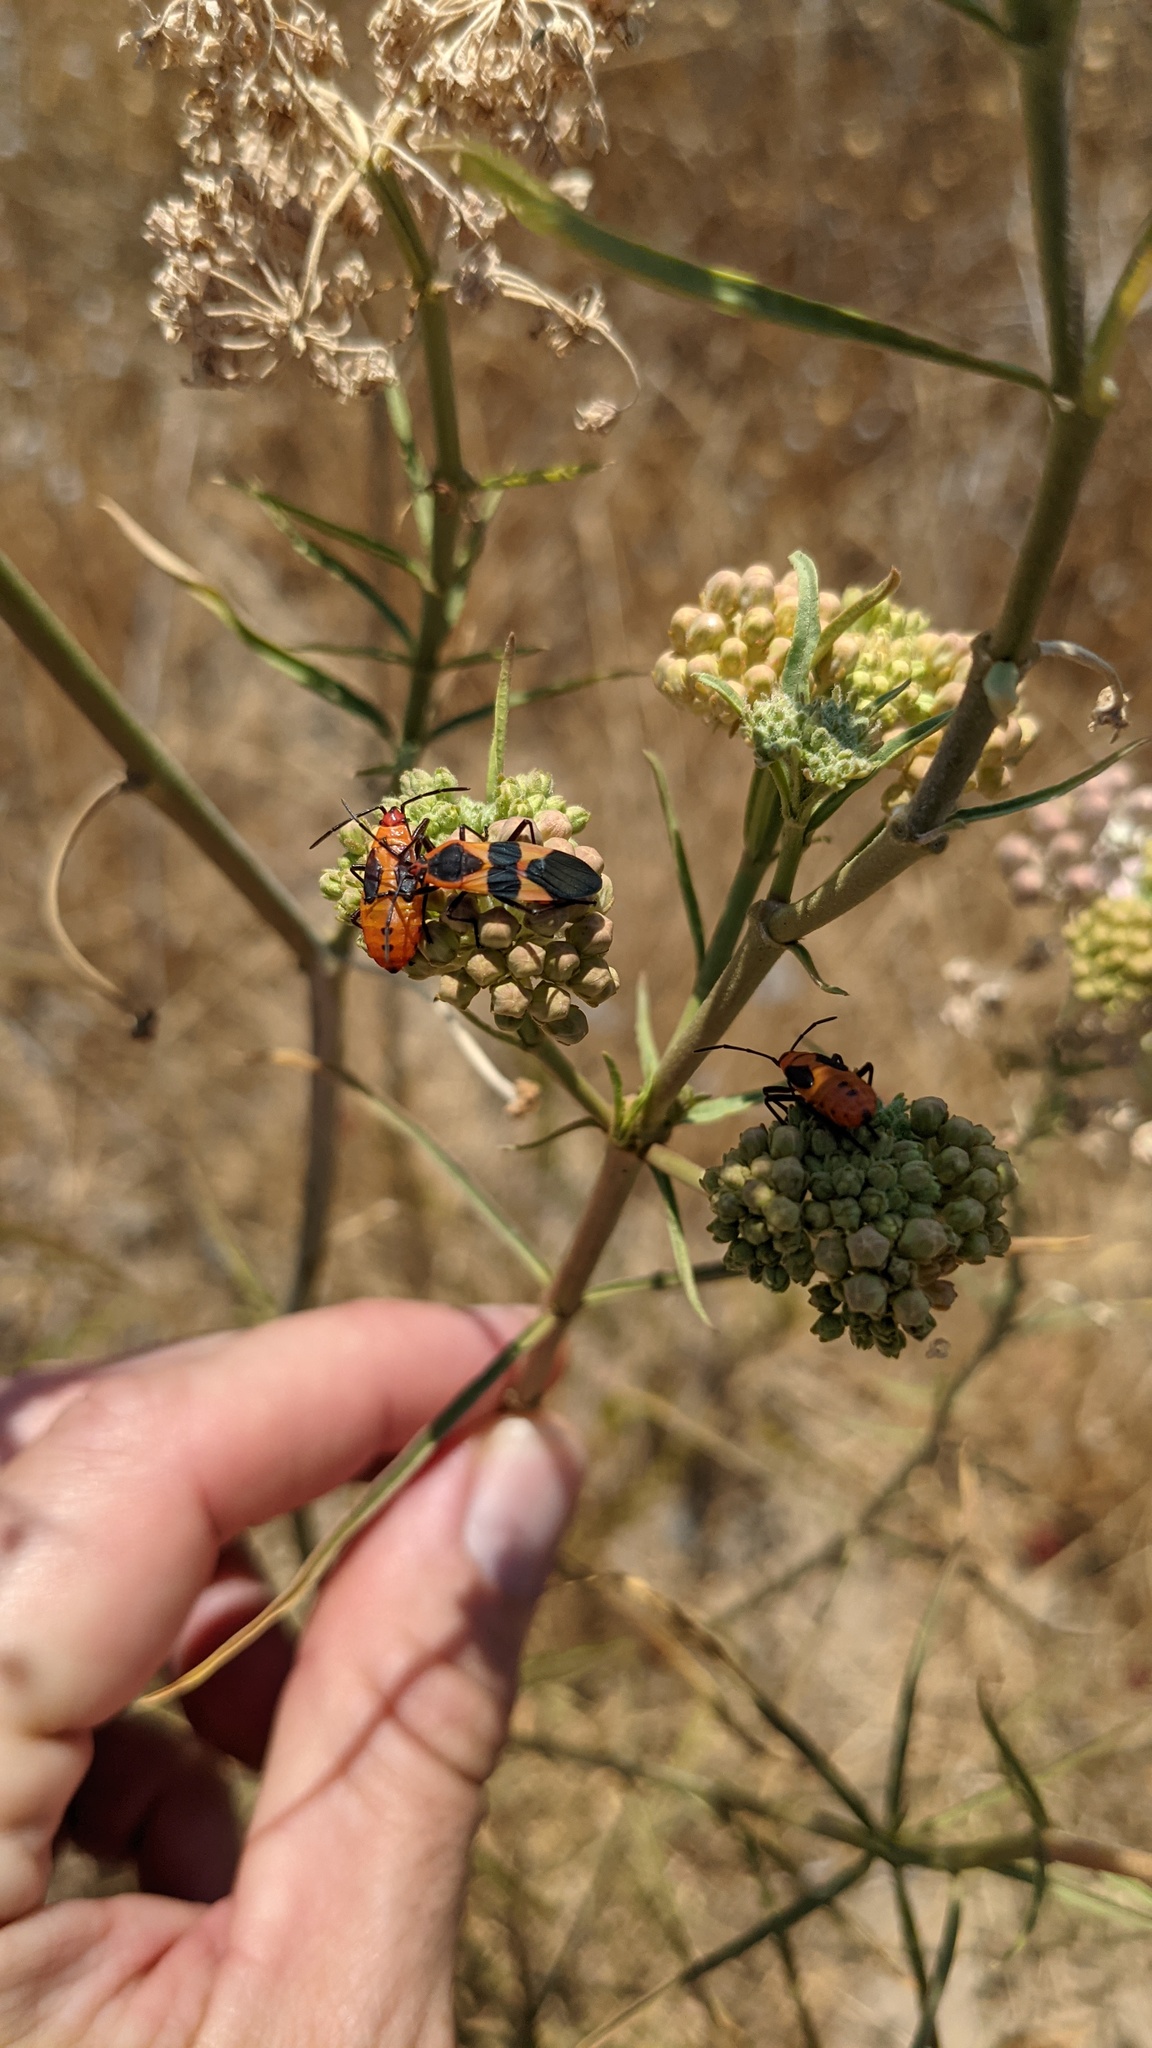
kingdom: Animalia
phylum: Arthropoda
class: Insecta
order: Hemiptera
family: Lygaeidae
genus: Oncopeltus
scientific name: Oncopeltus fasciatus
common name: Large milkweed bug
